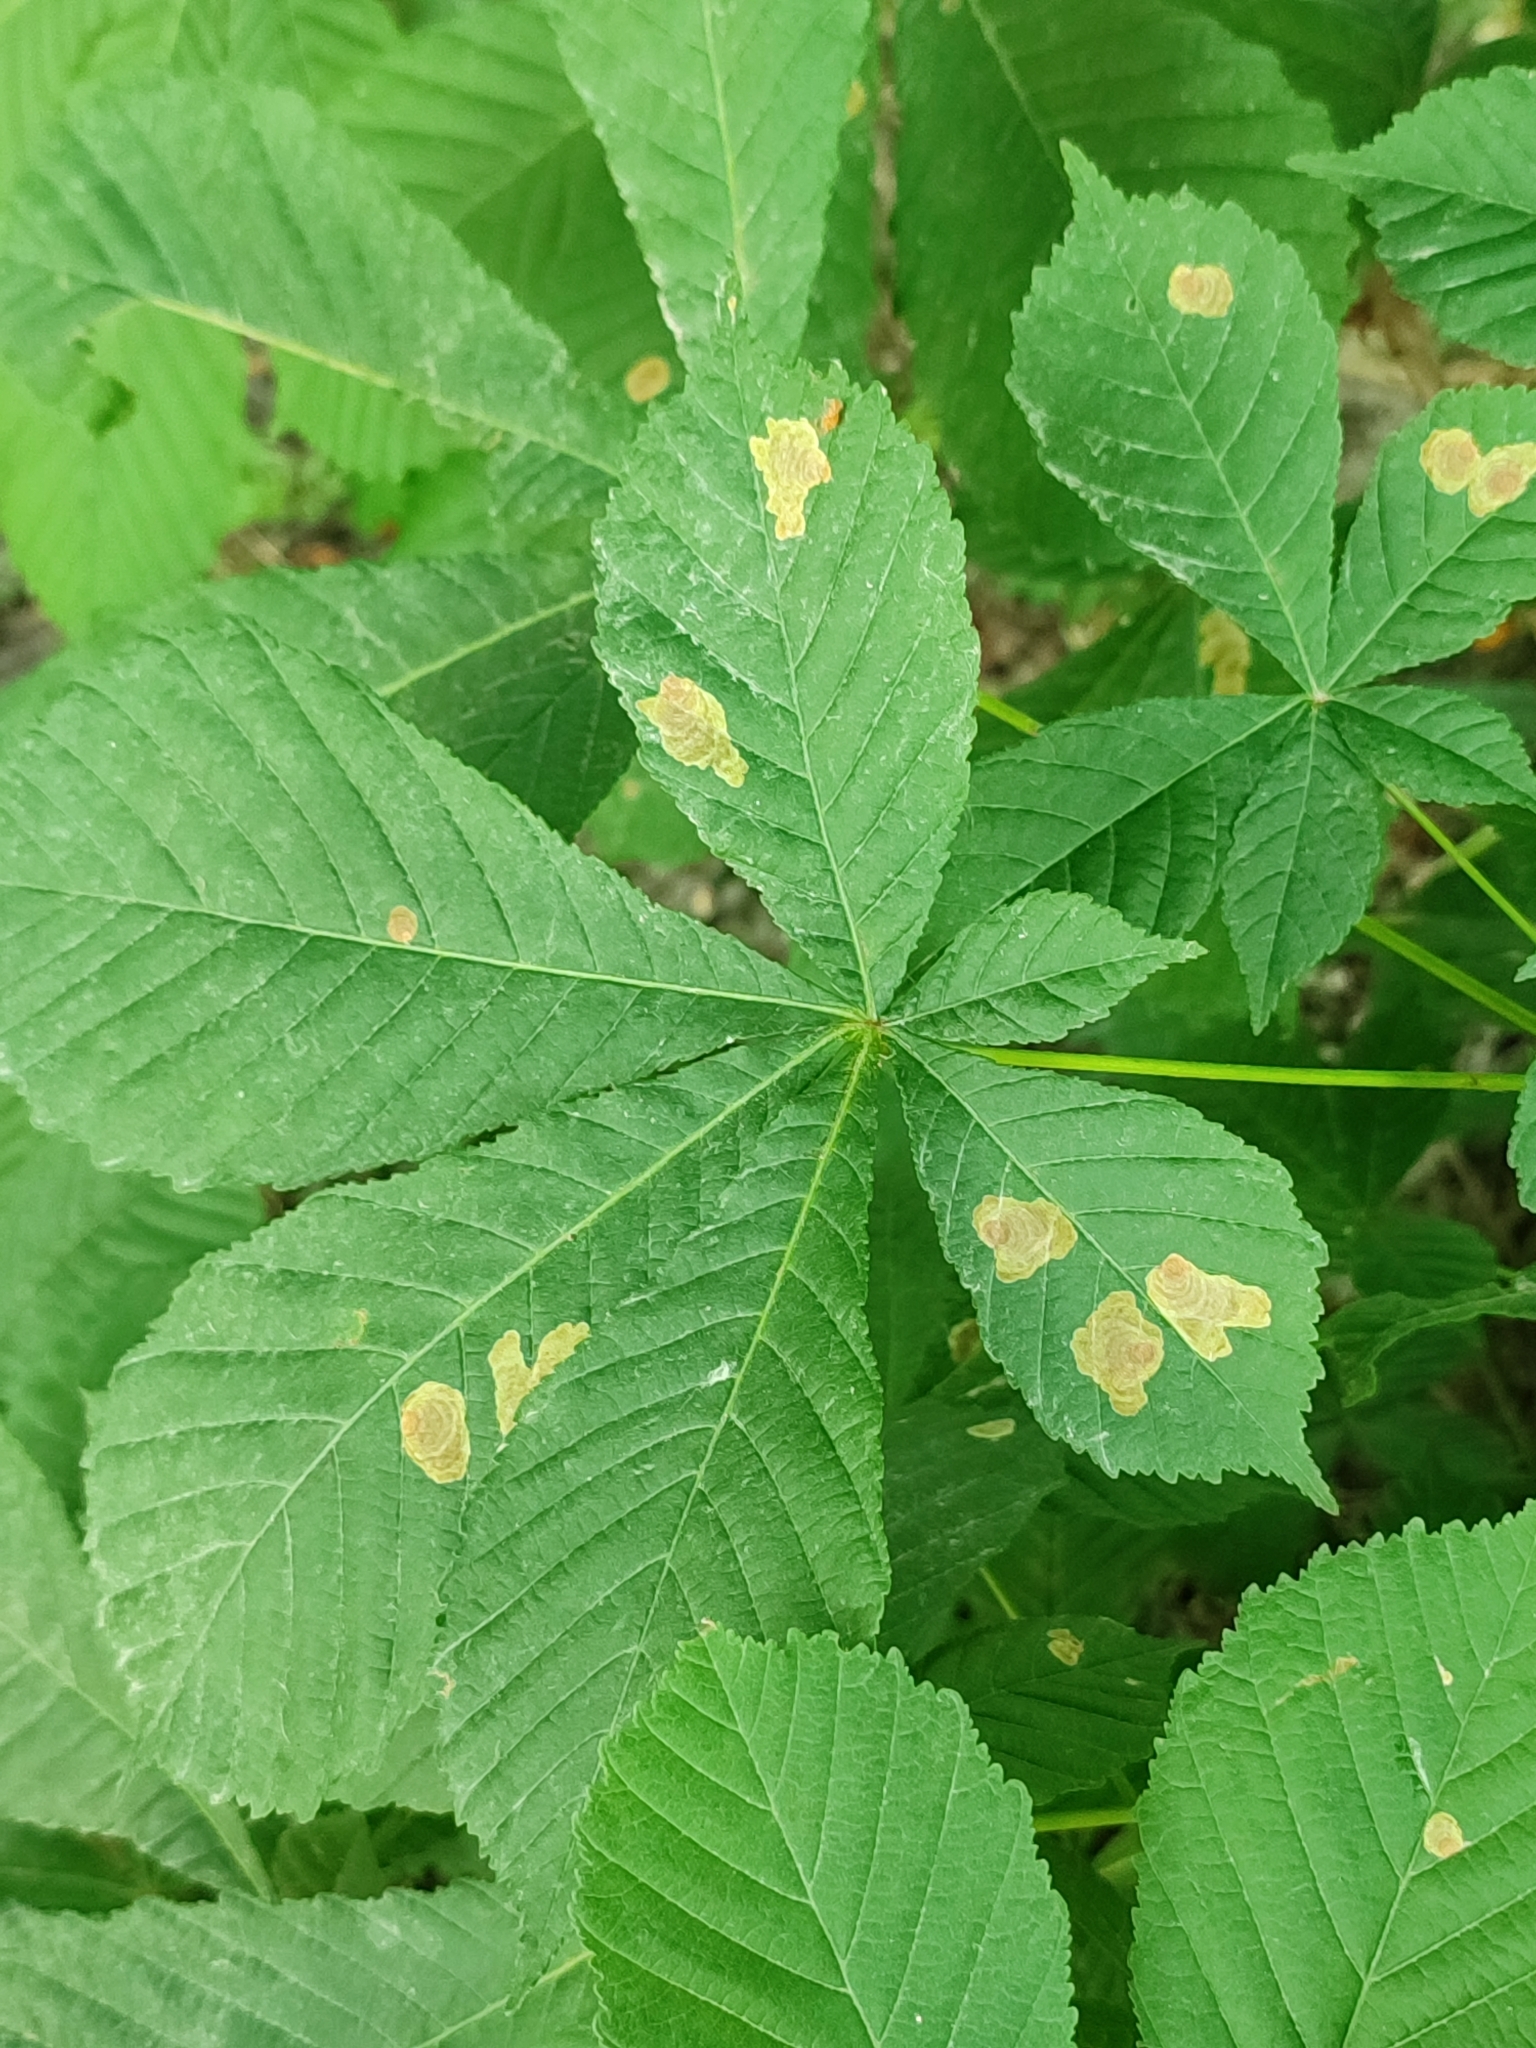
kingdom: Animalia
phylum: Arthropoda
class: Insecta
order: Lepidoptera
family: Gracillariidae
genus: Cameraria
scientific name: Cameraria ohridella
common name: Horse-chestnut leaf-miner
